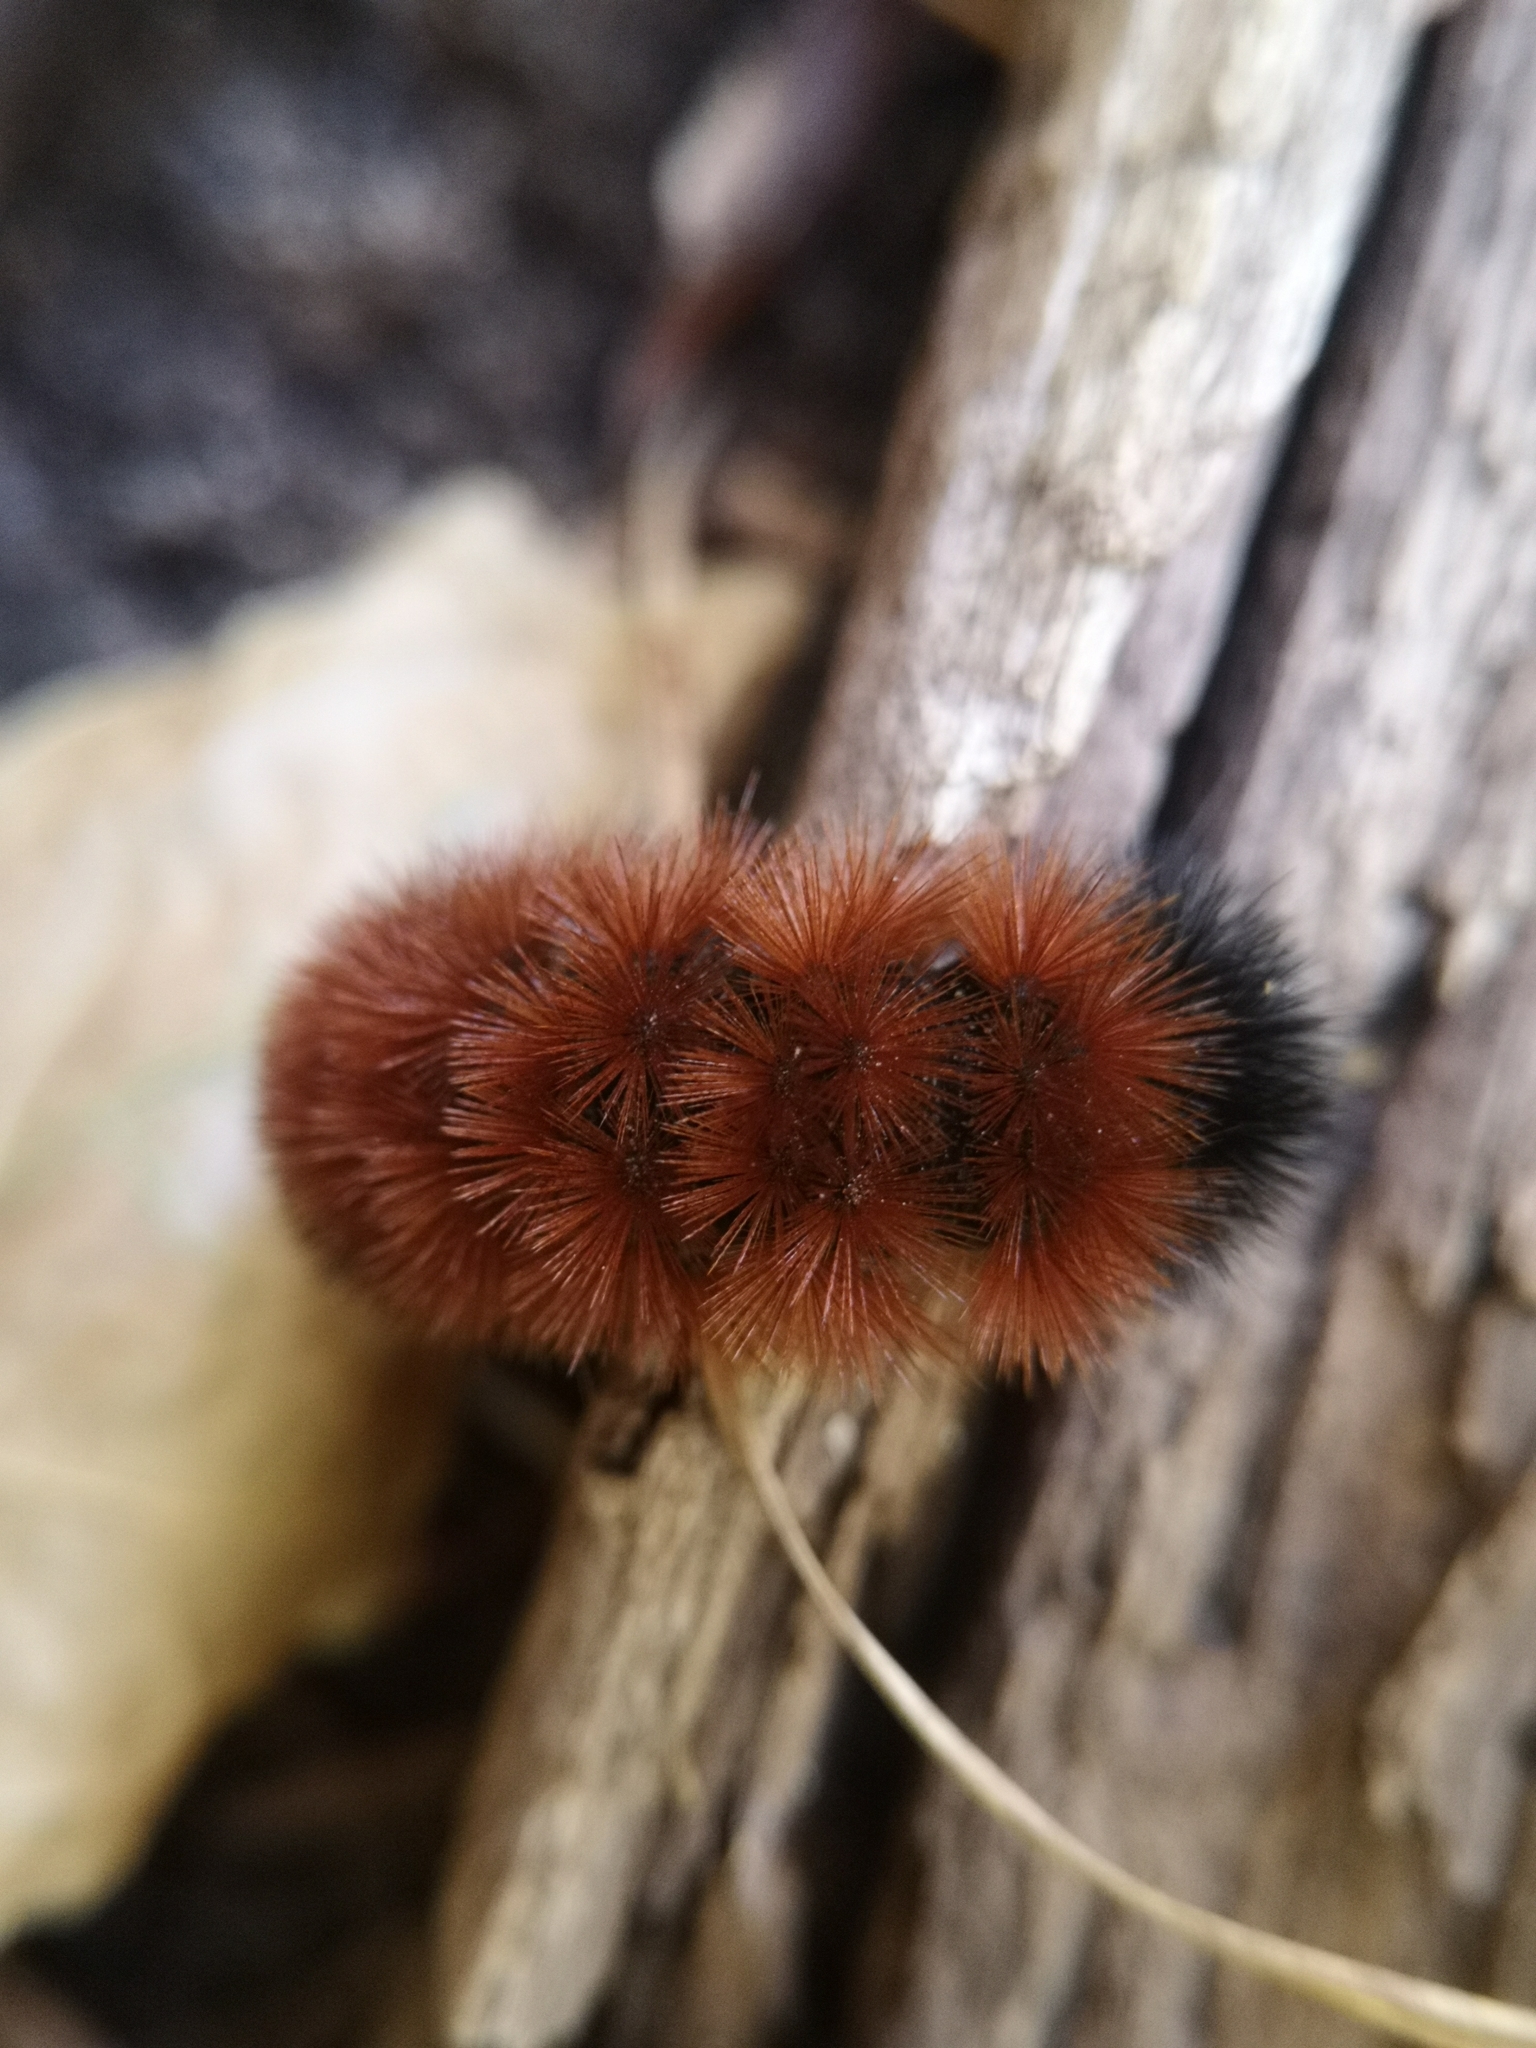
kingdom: Animalia
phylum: Arthropoda
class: Insecta
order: Lepidoptera
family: Erebidae
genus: Pyrrharctia
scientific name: Pyrrharctia isabella
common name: Isabella tiger moth
